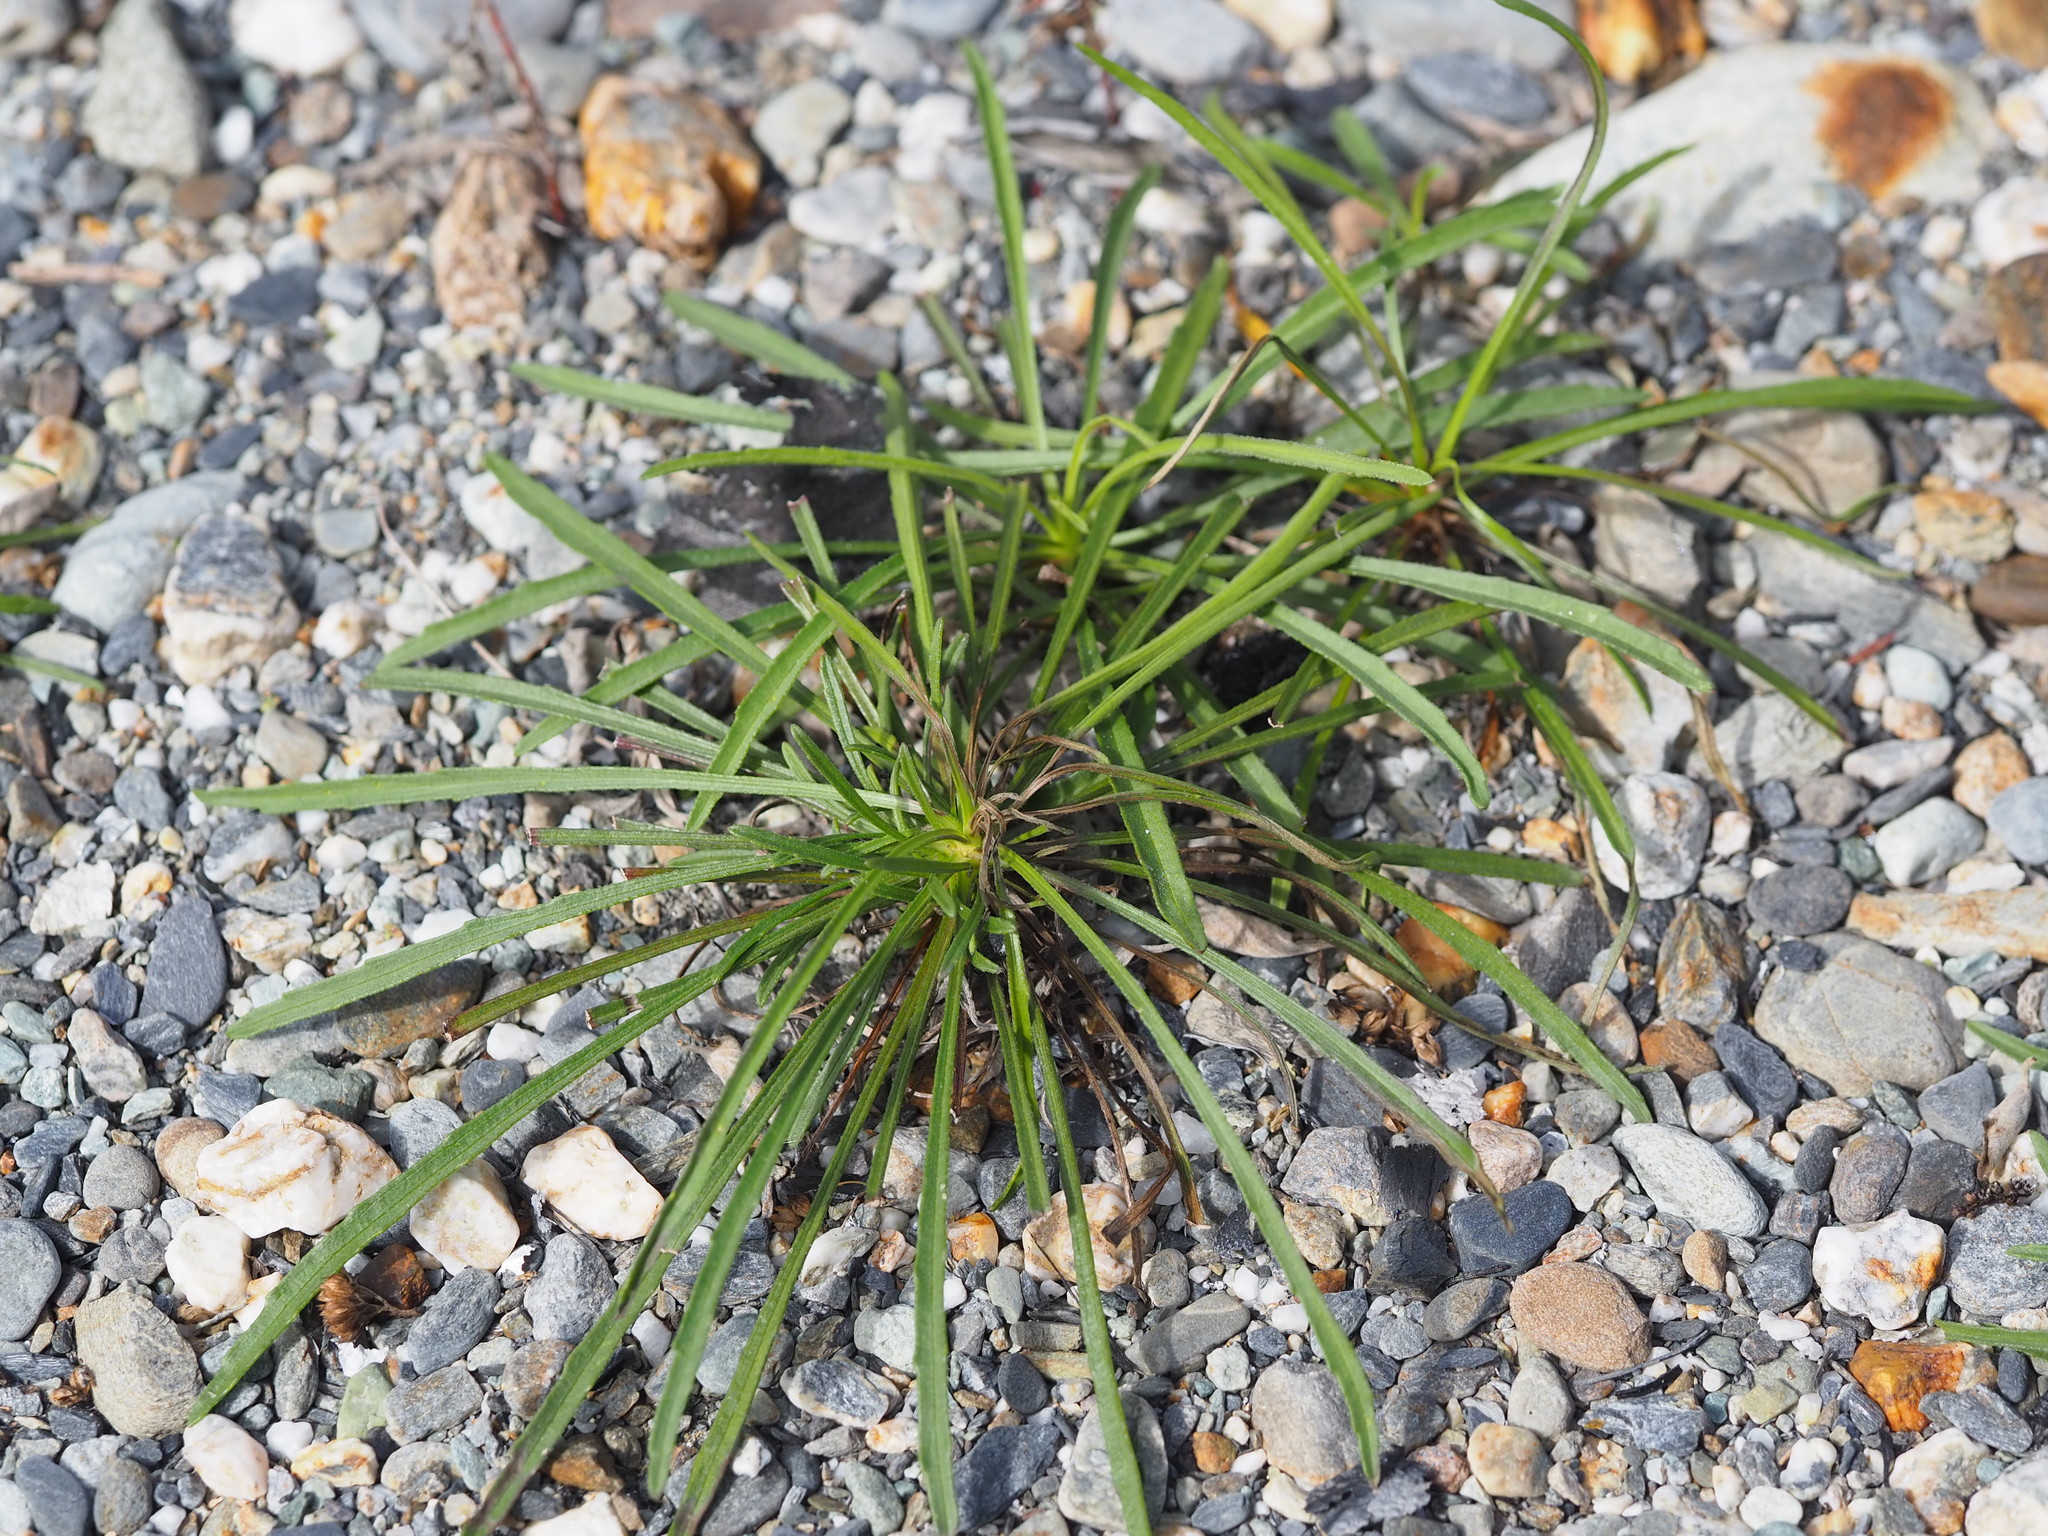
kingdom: Plantae
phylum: Tracheophyta
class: Magnoliopsida
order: Asterales
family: Asteraceae
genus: Heteropappus
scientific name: Heteropappus altaicus
